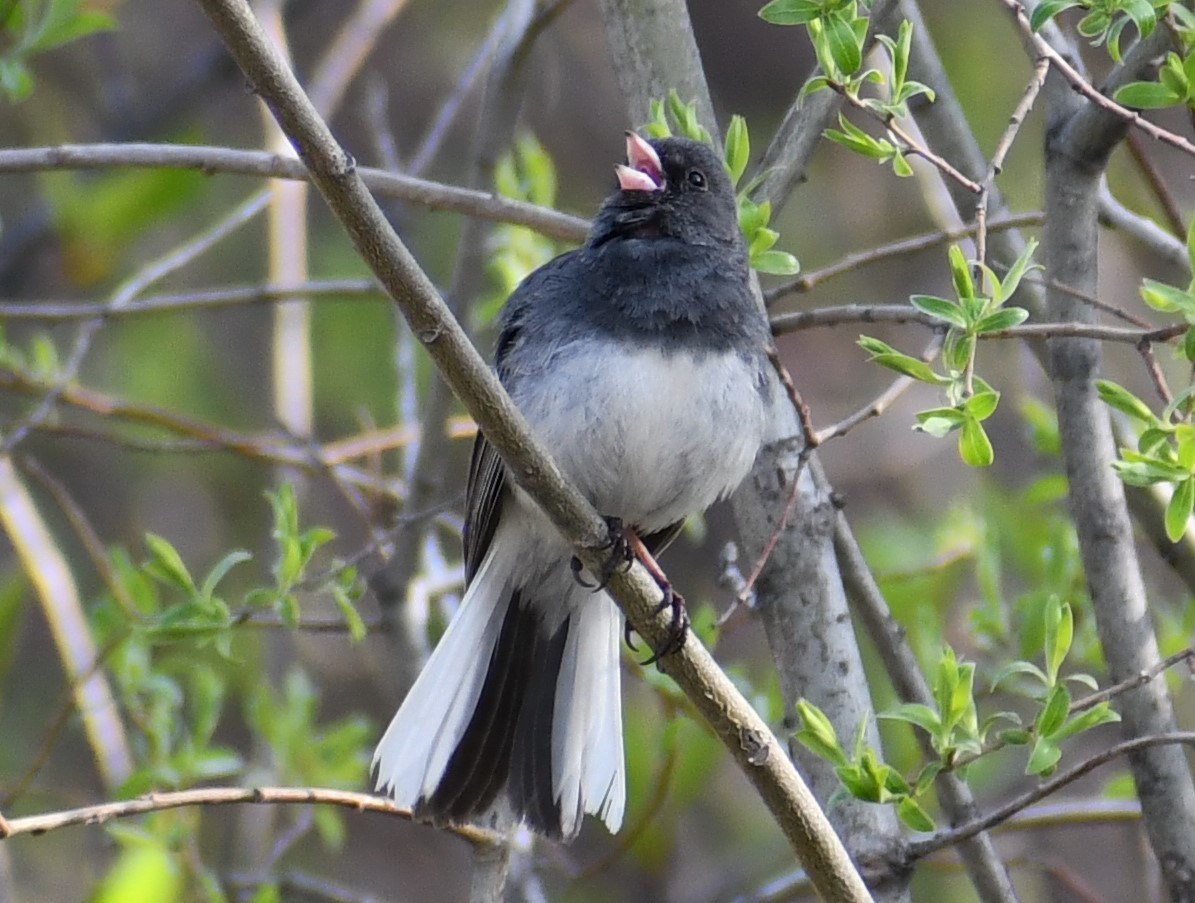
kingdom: Animalia
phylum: Chordata
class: Aves
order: Passeriformes
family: Passerellidae
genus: Junco
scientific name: Junco hyemalis
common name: Dark-eyed junco
